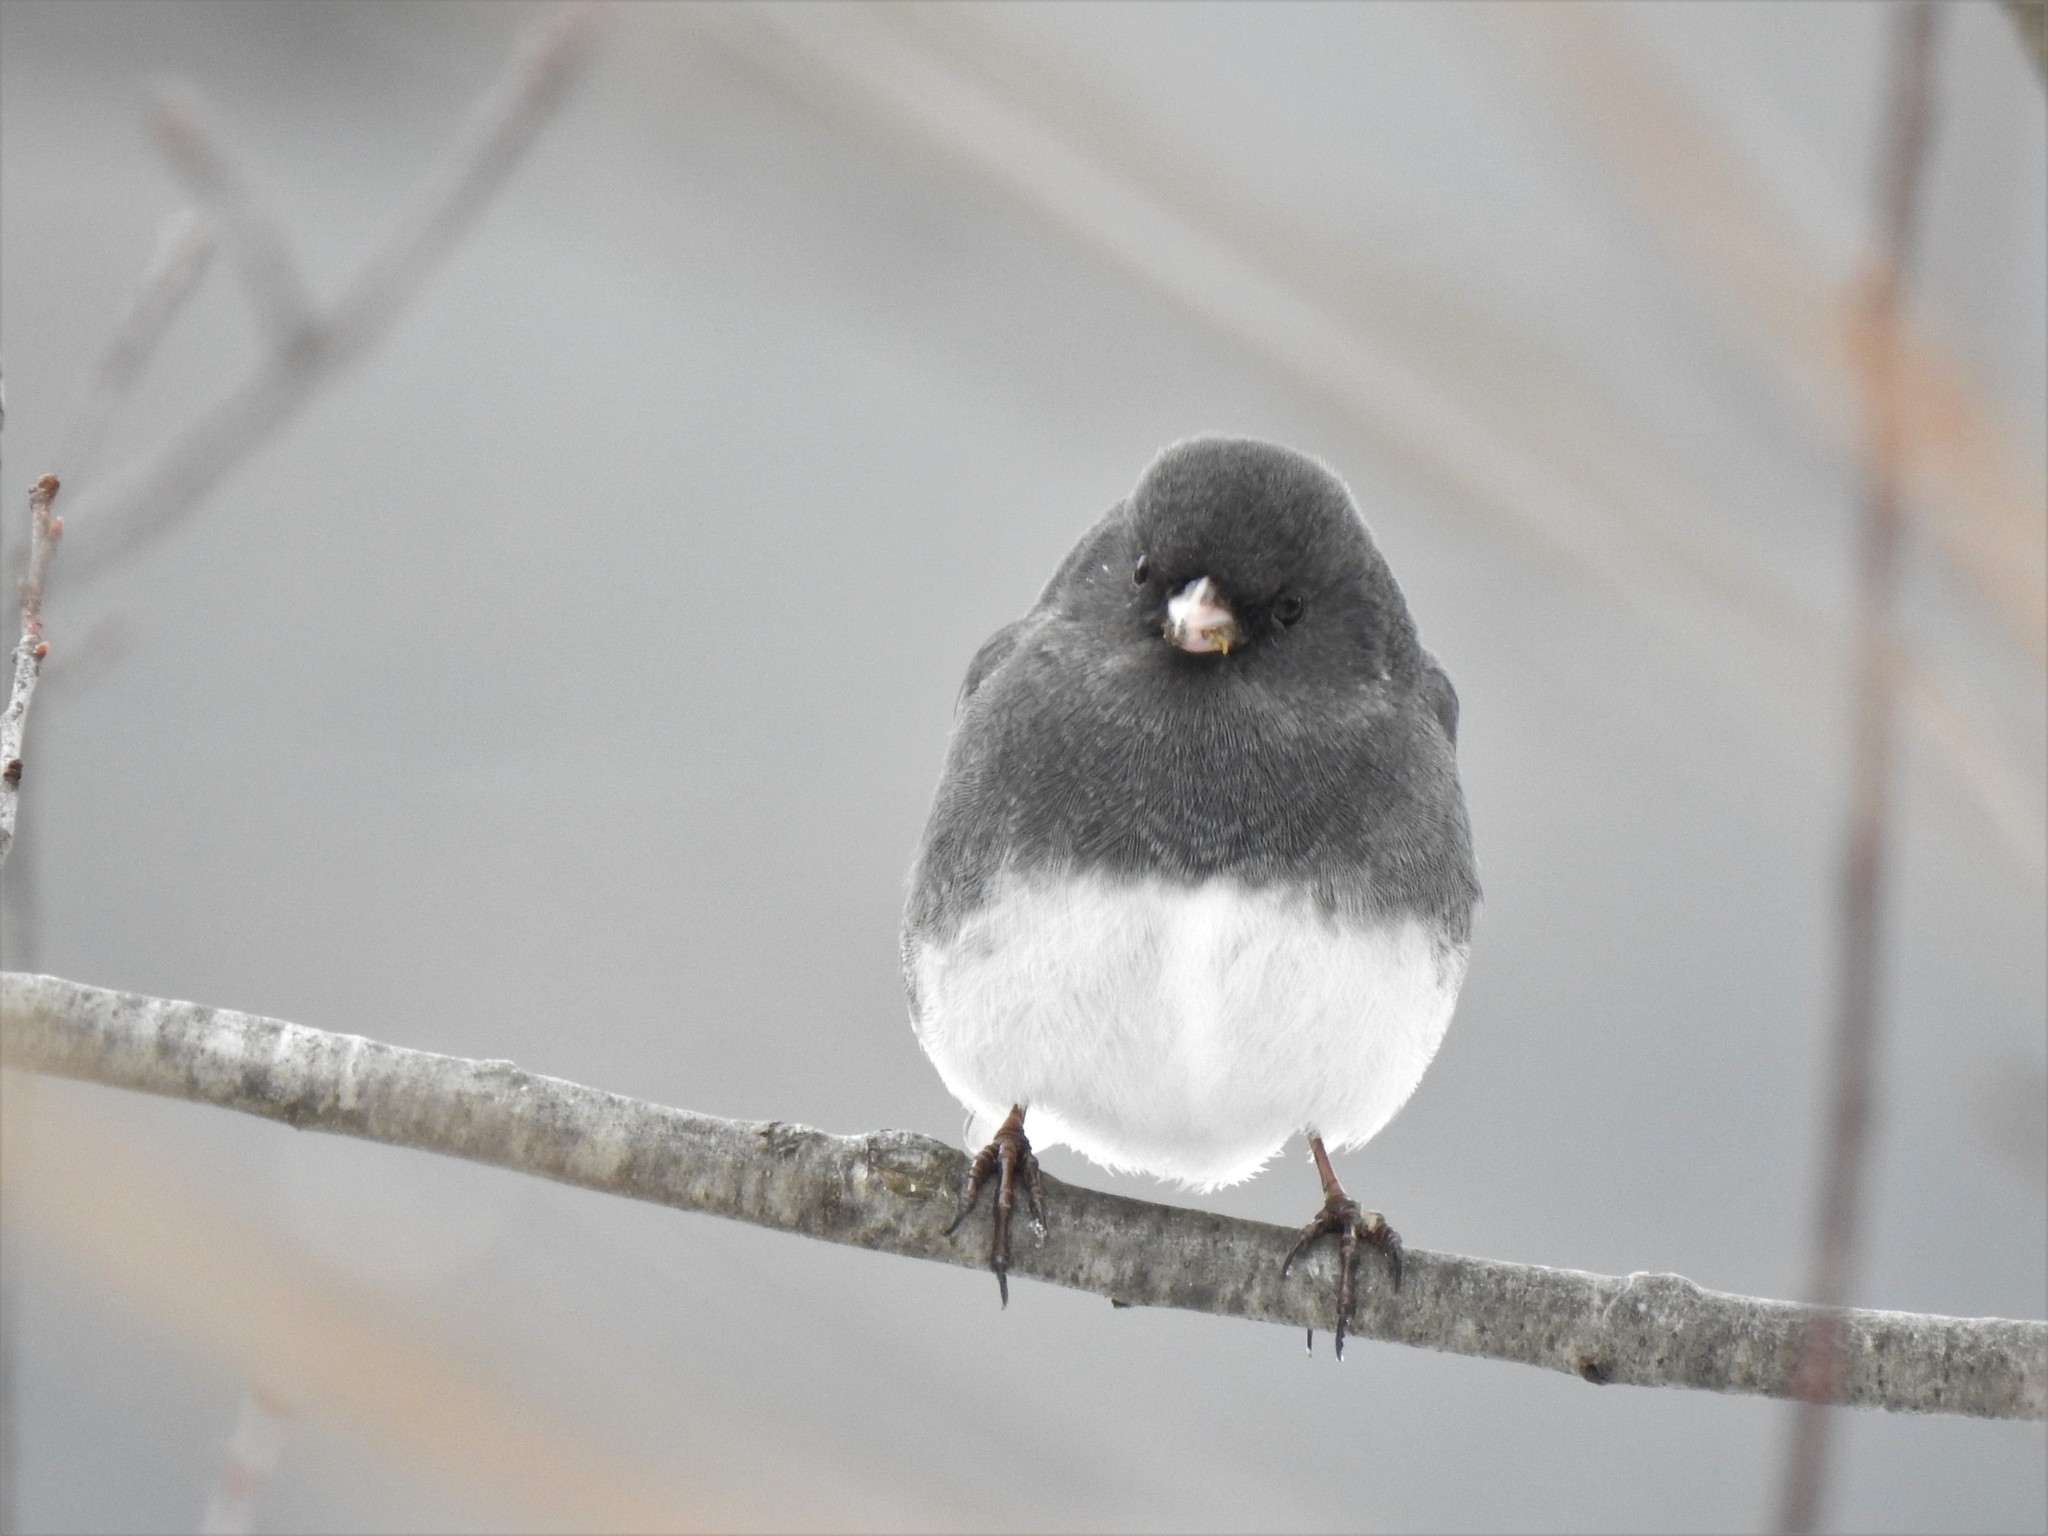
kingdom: Animalia
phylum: Chordata
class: Aves
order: Passeriformes
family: Passerellidae
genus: Junco
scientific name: Junco hyemalis
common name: Dark-eyed junco
